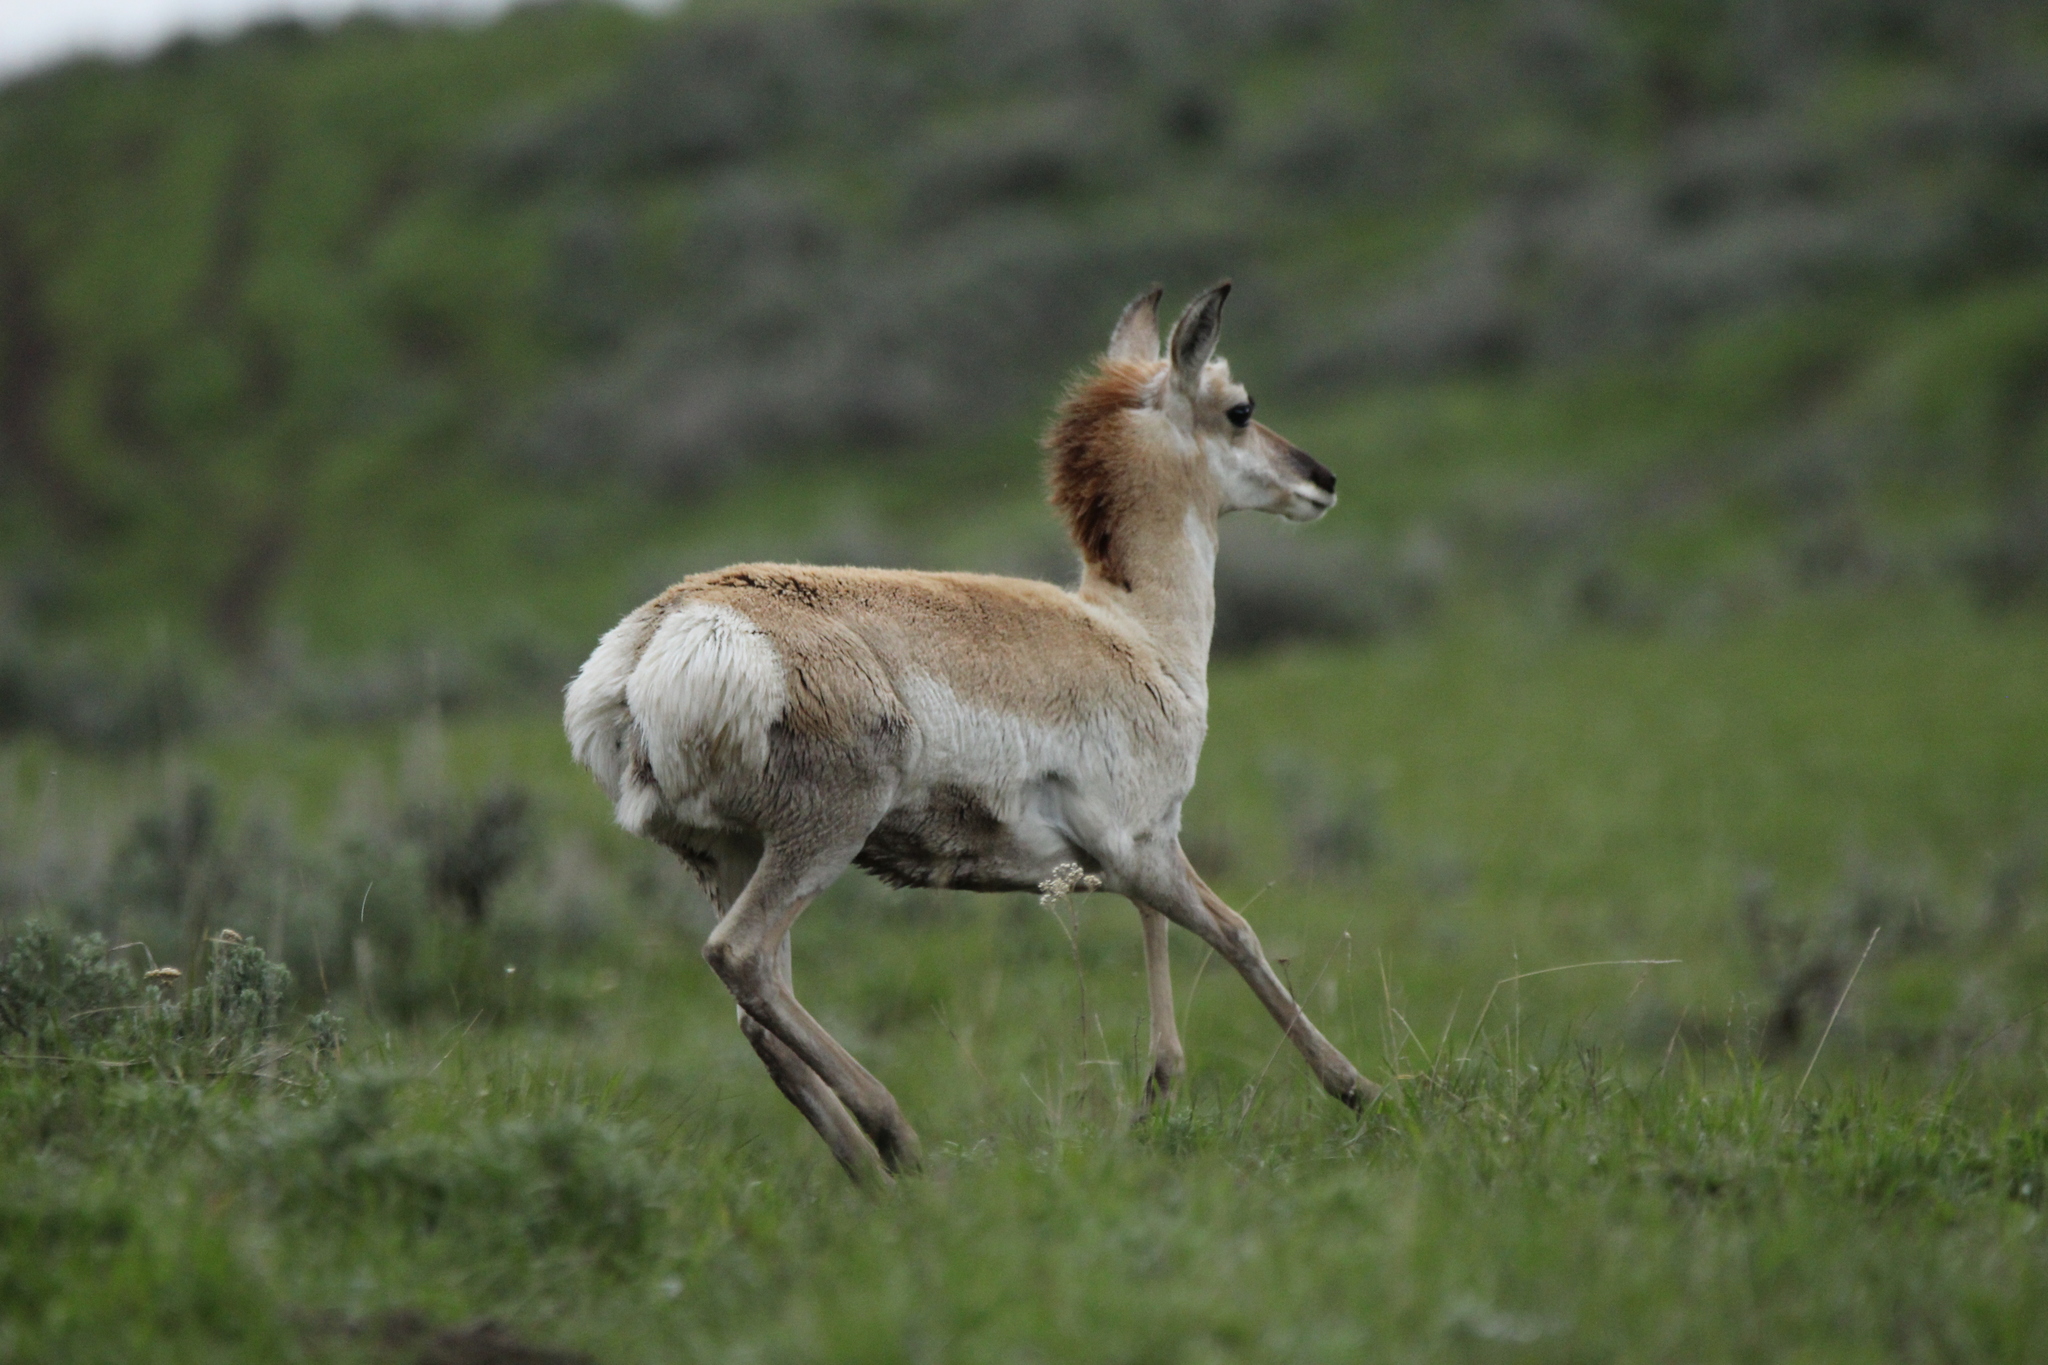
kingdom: Animalia
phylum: Chordata
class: Mammalia
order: Artiodactyla
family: Antilocapridae
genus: Antilocapra
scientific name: Antilocapra americana
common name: Pronghorn
